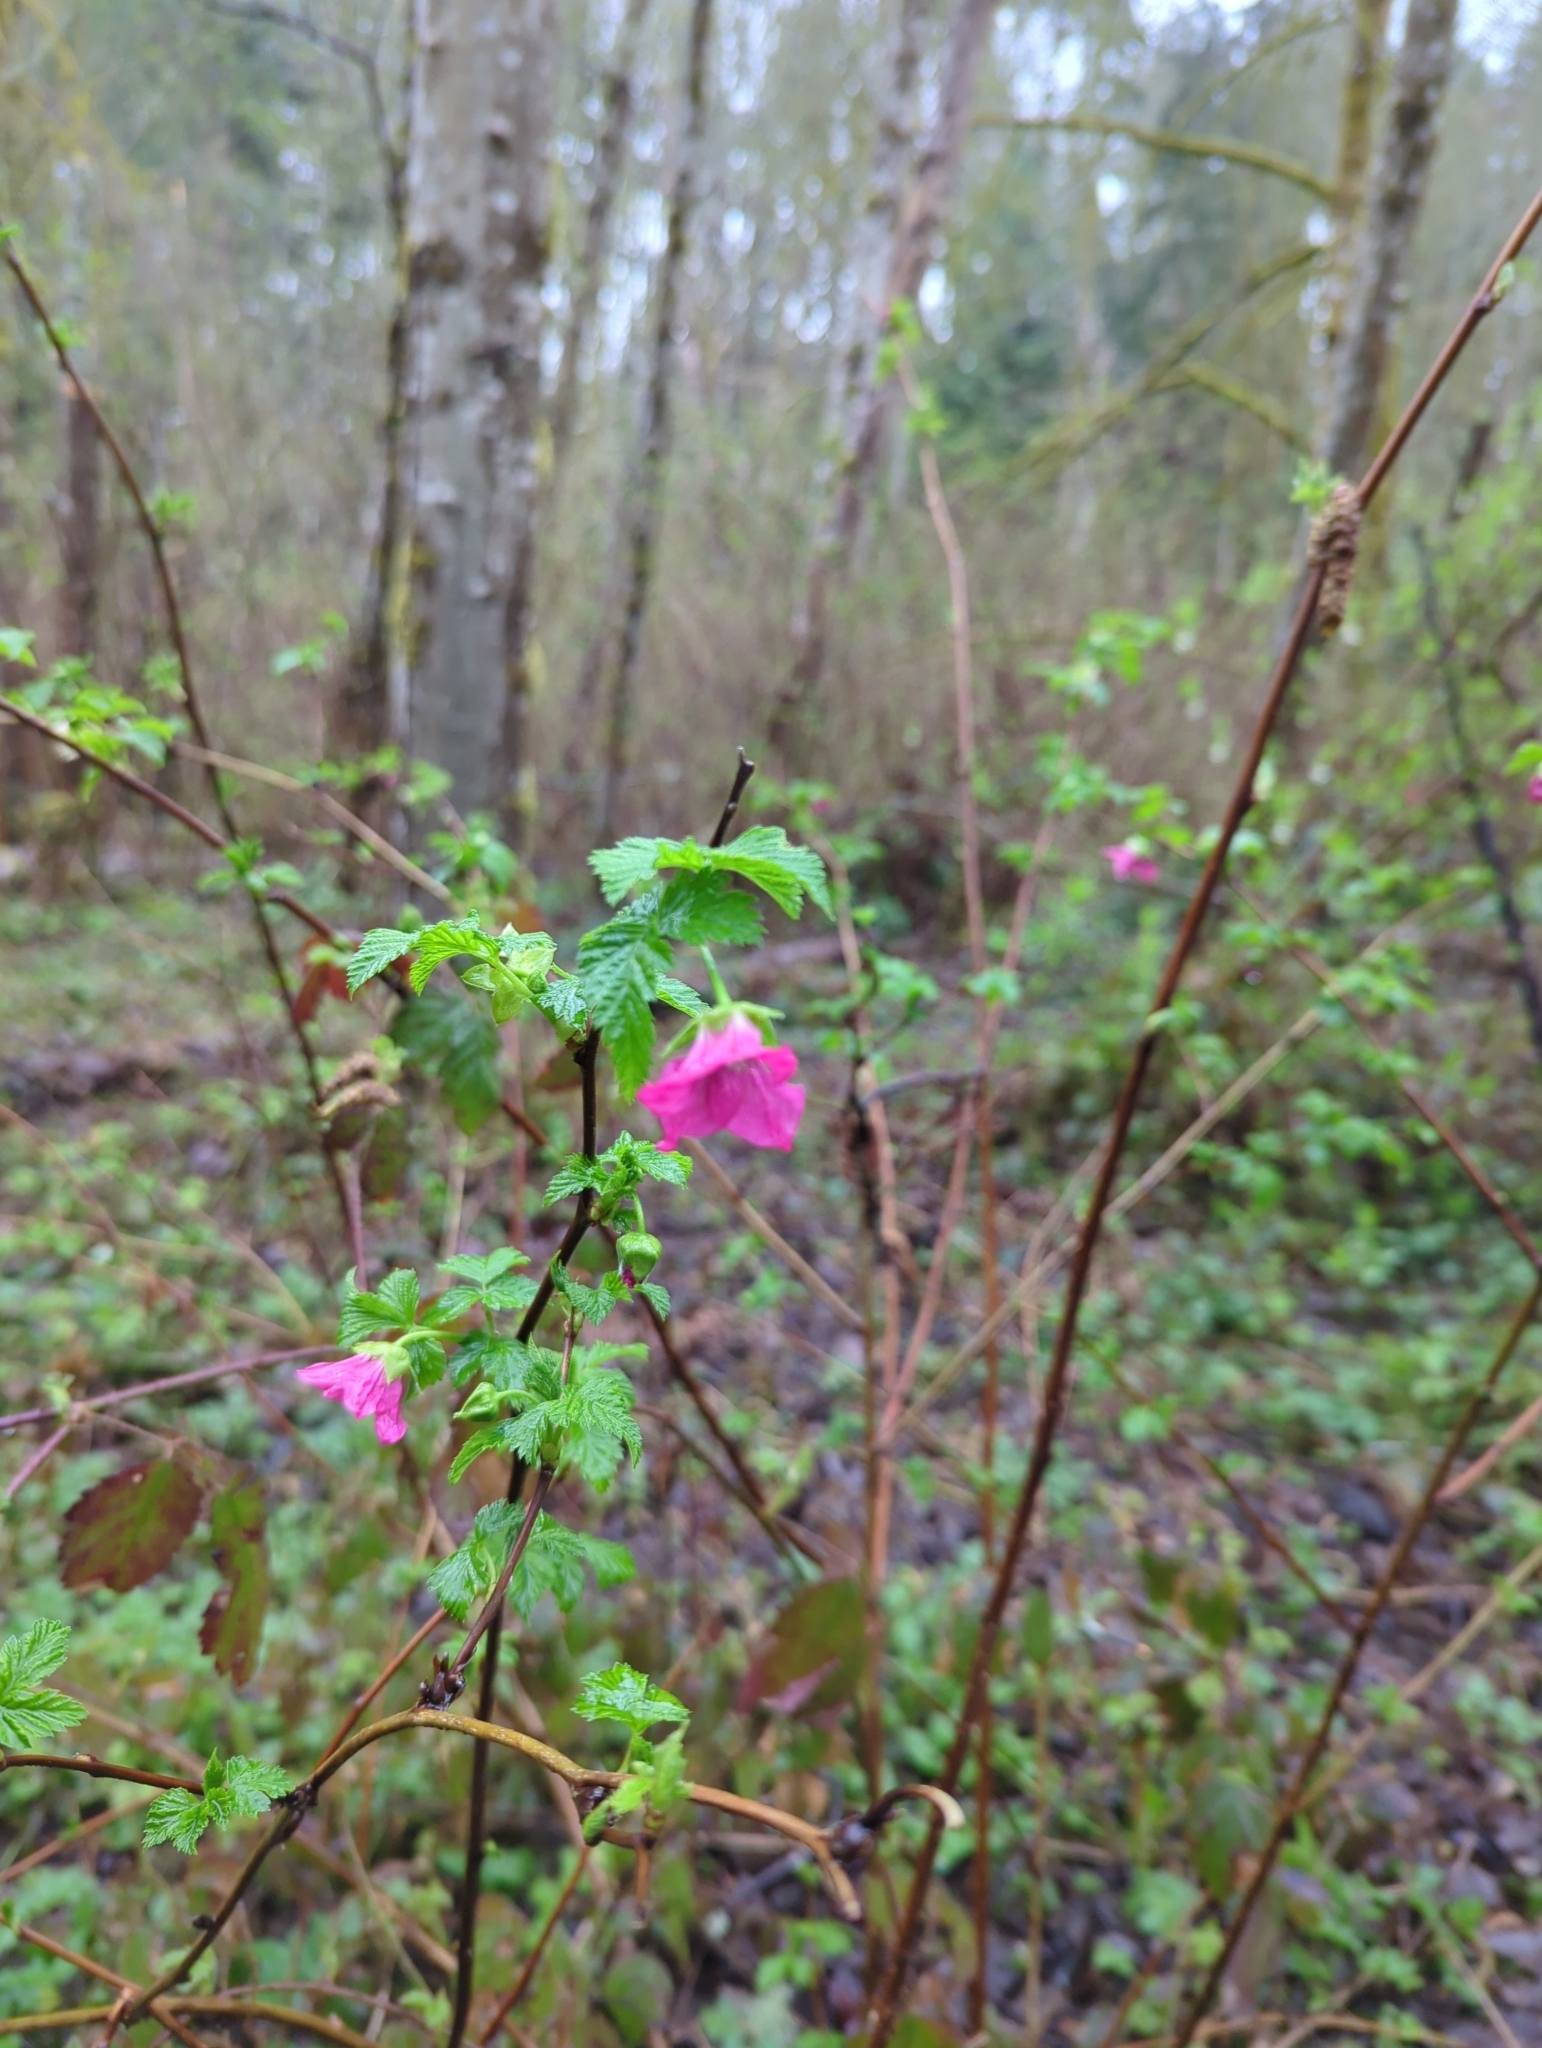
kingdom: Plantae
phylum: Tracheophyta
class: Magnoliopsida
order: Rosales
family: Rosaceae
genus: Rubus
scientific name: Rubus spectabilis
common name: Salmonberry
